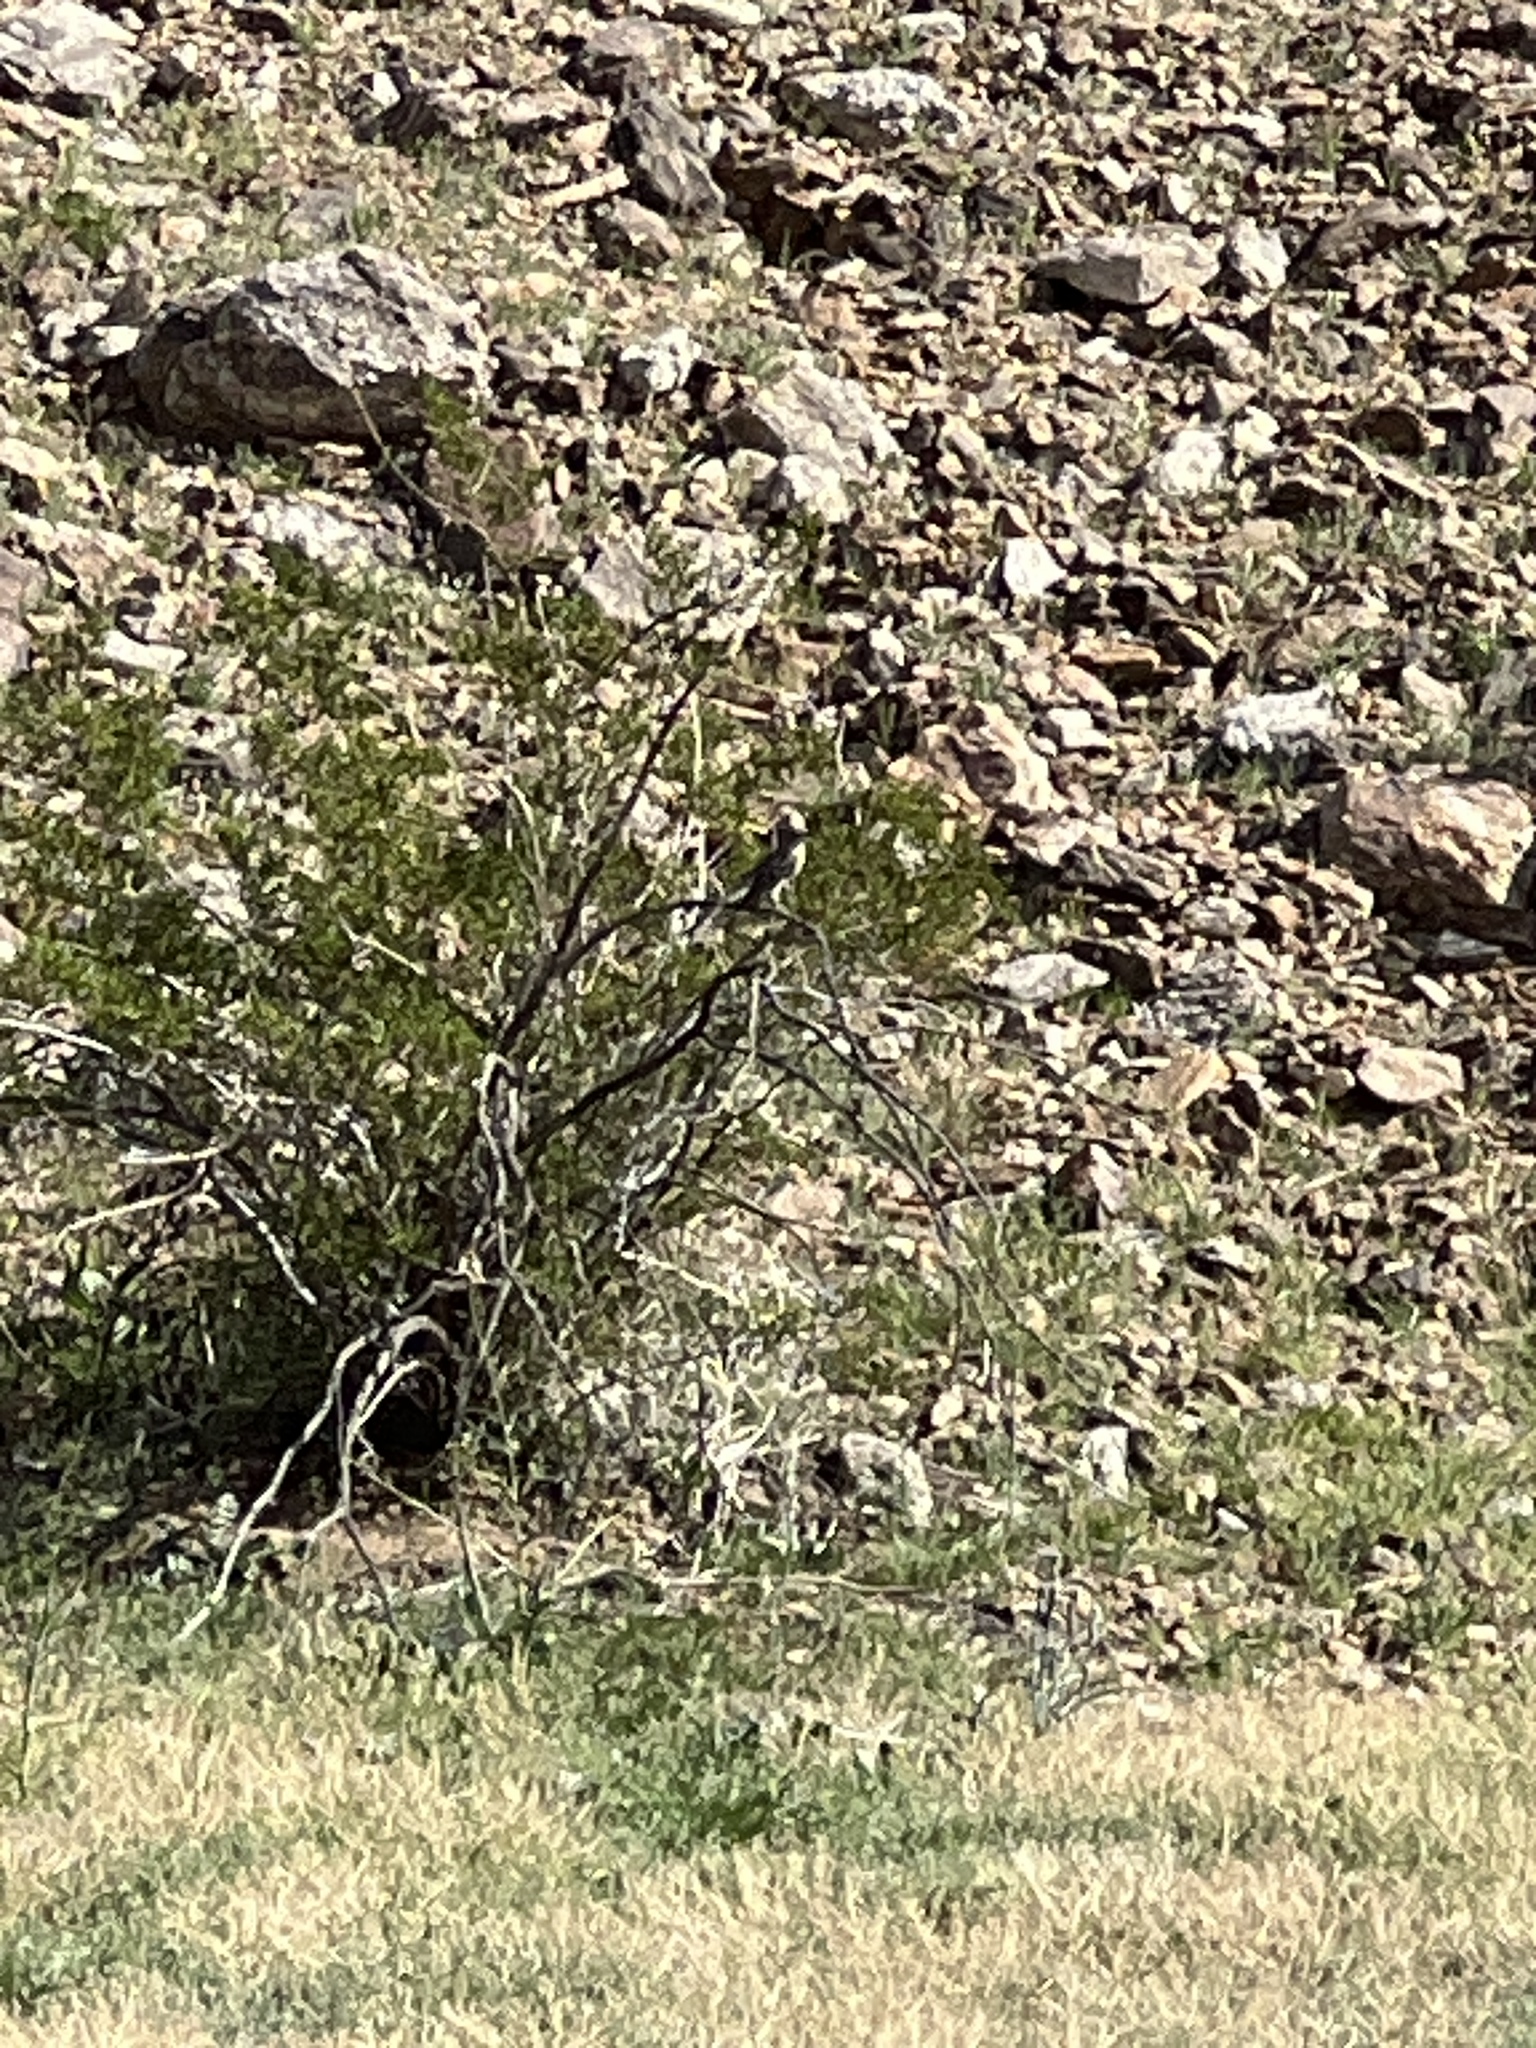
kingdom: Animalia
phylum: Chordata
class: Aves
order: Passeriformes
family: Mimidae
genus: Mimus
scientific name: Mimus polyglottos
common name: Northern mockingbird
